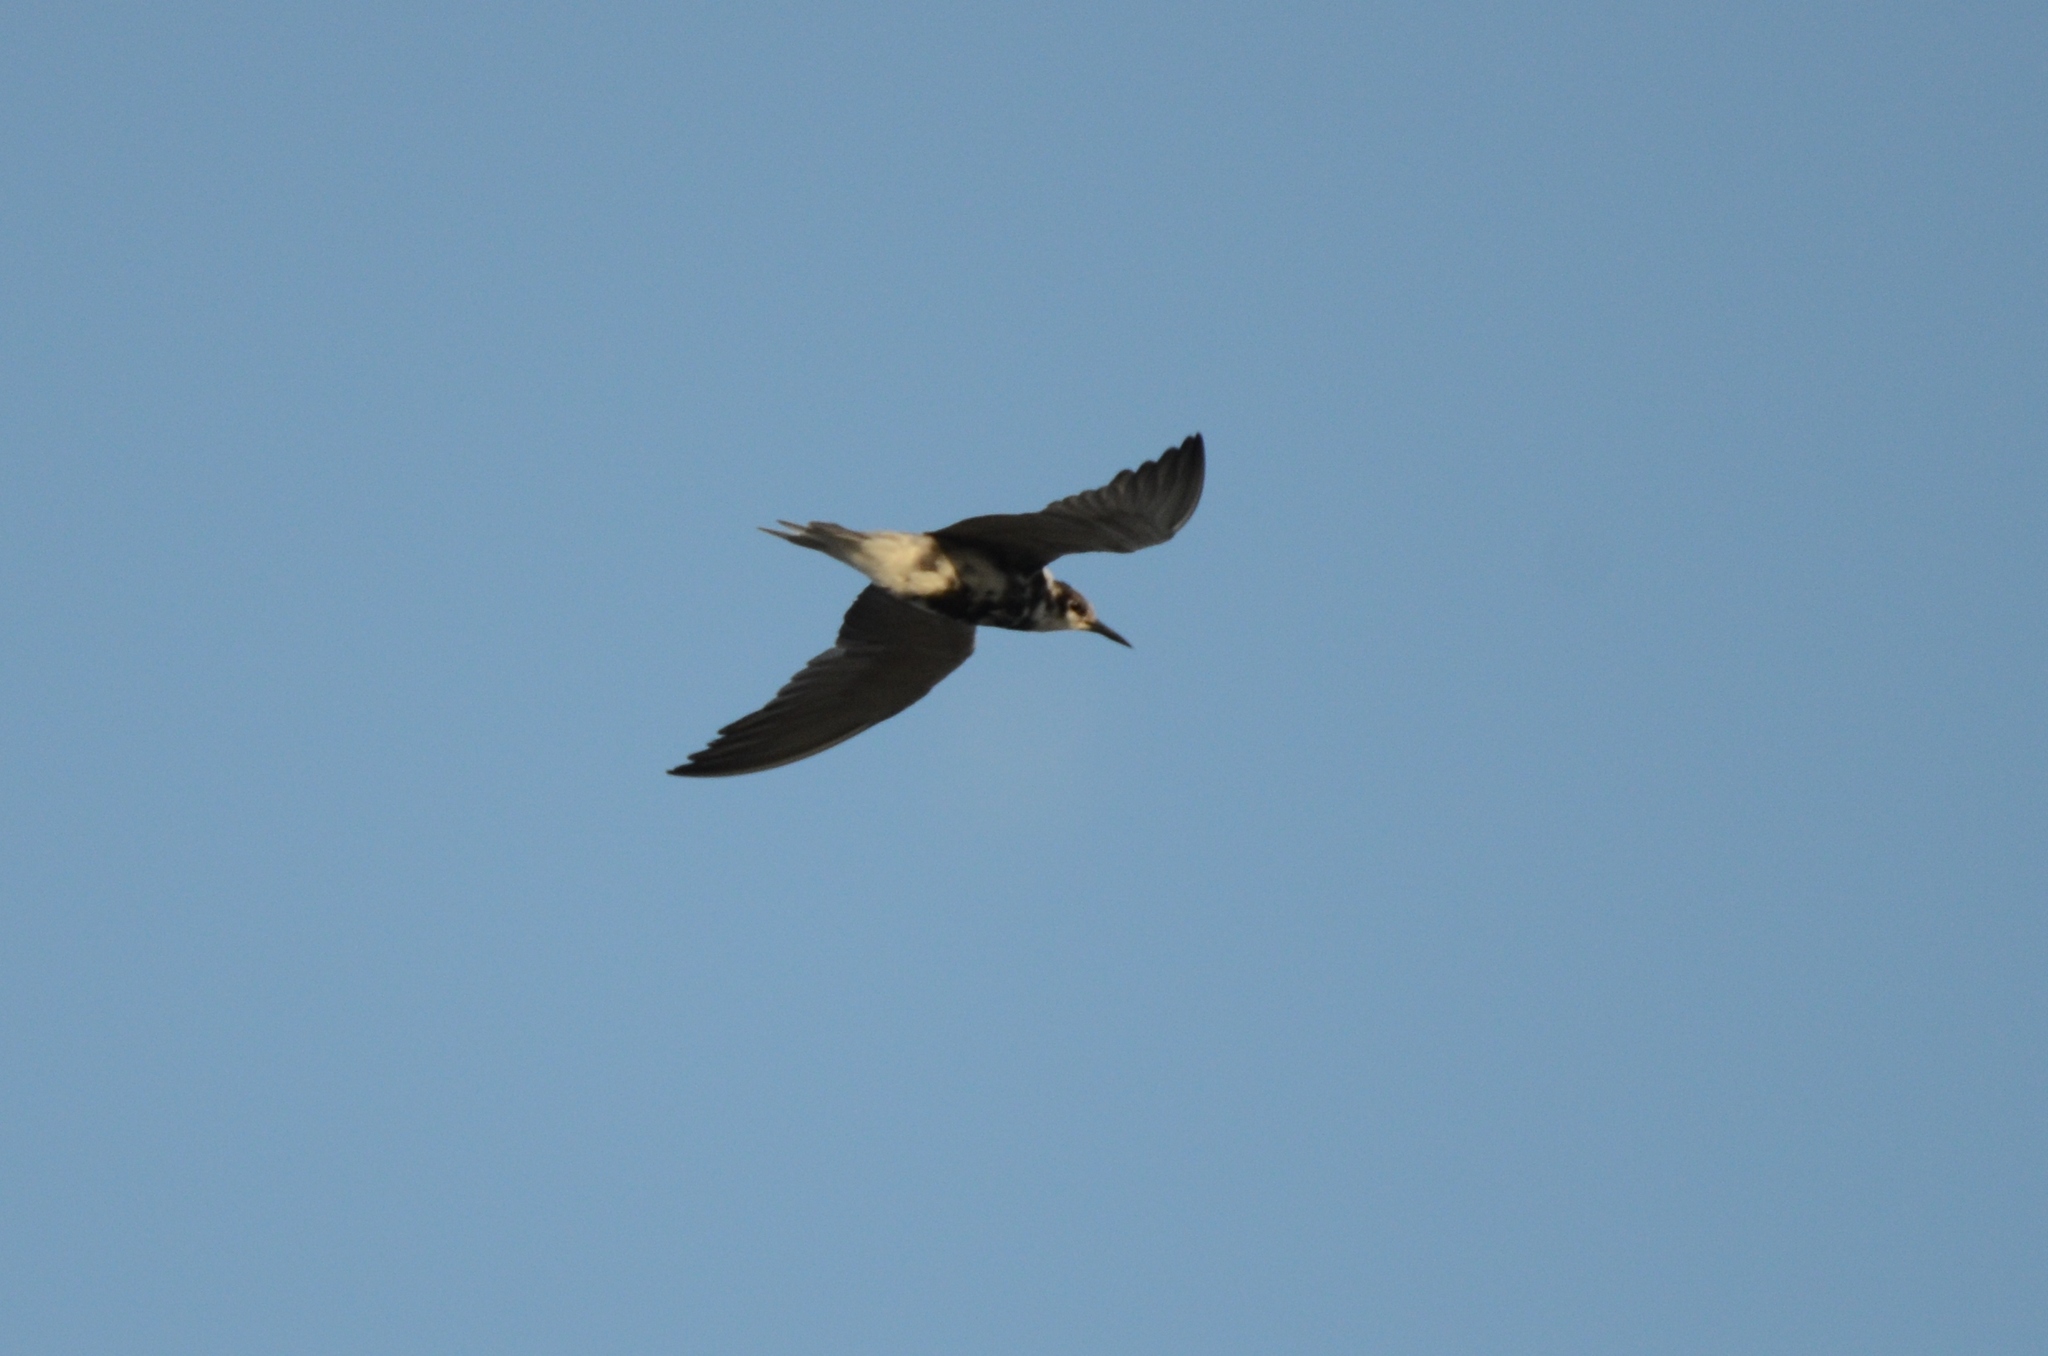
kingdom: Animalia
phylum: Chordata
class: Aves
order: Charadriiformes
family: Laridae
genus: Chlidonias
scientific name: Chlidonias niger
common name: Black tern
